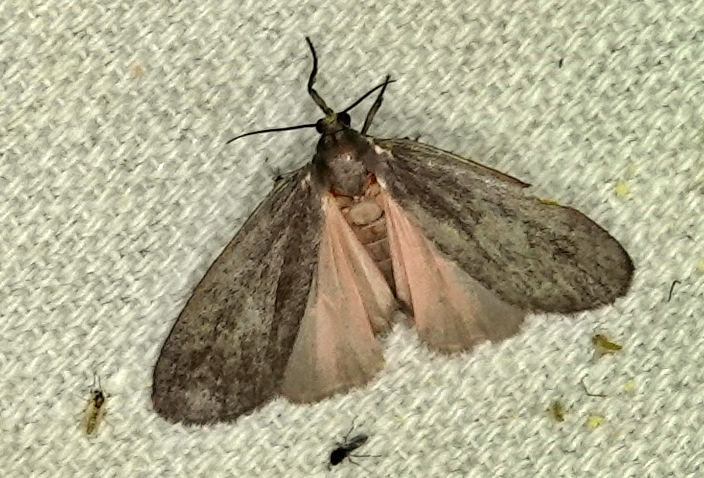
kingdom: Animalia
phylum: Arthropoda
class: Insecta
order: Lepidoptera
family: Erebidae
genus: Hypoprepia
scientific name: Hypoprepia inculta
